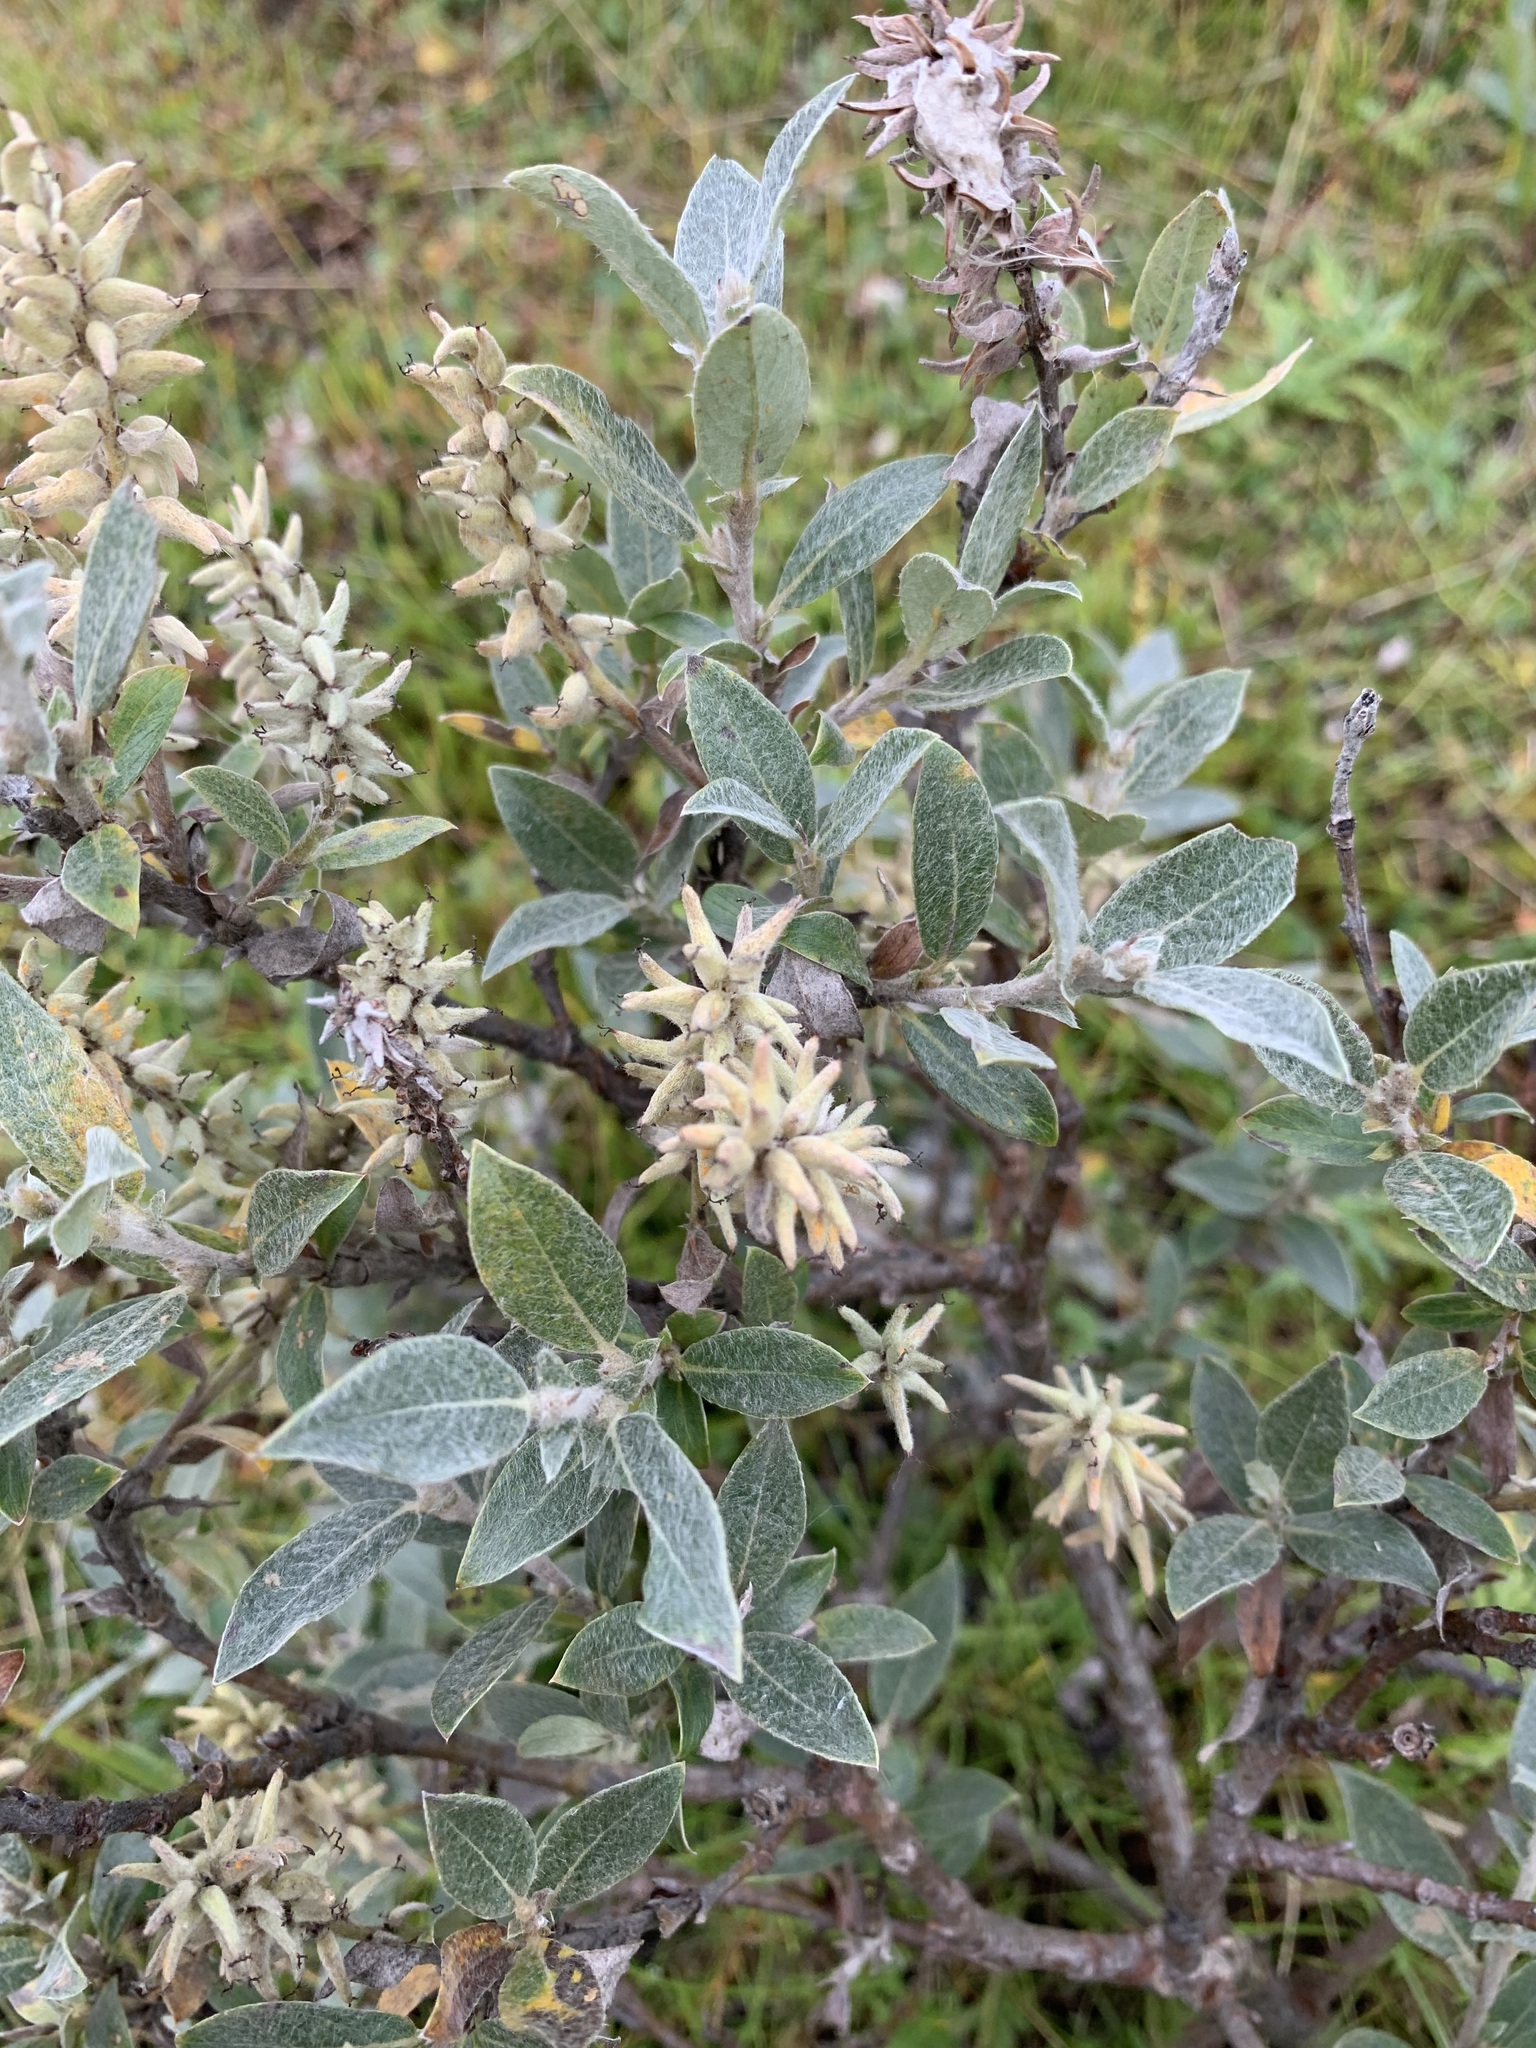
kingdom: Plantae
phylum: Tracheophyta
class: Magnoliopsida
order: Malpighiales
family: Salicaceae
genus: Salix
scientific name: Salix glauca
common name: Glaucous willow
